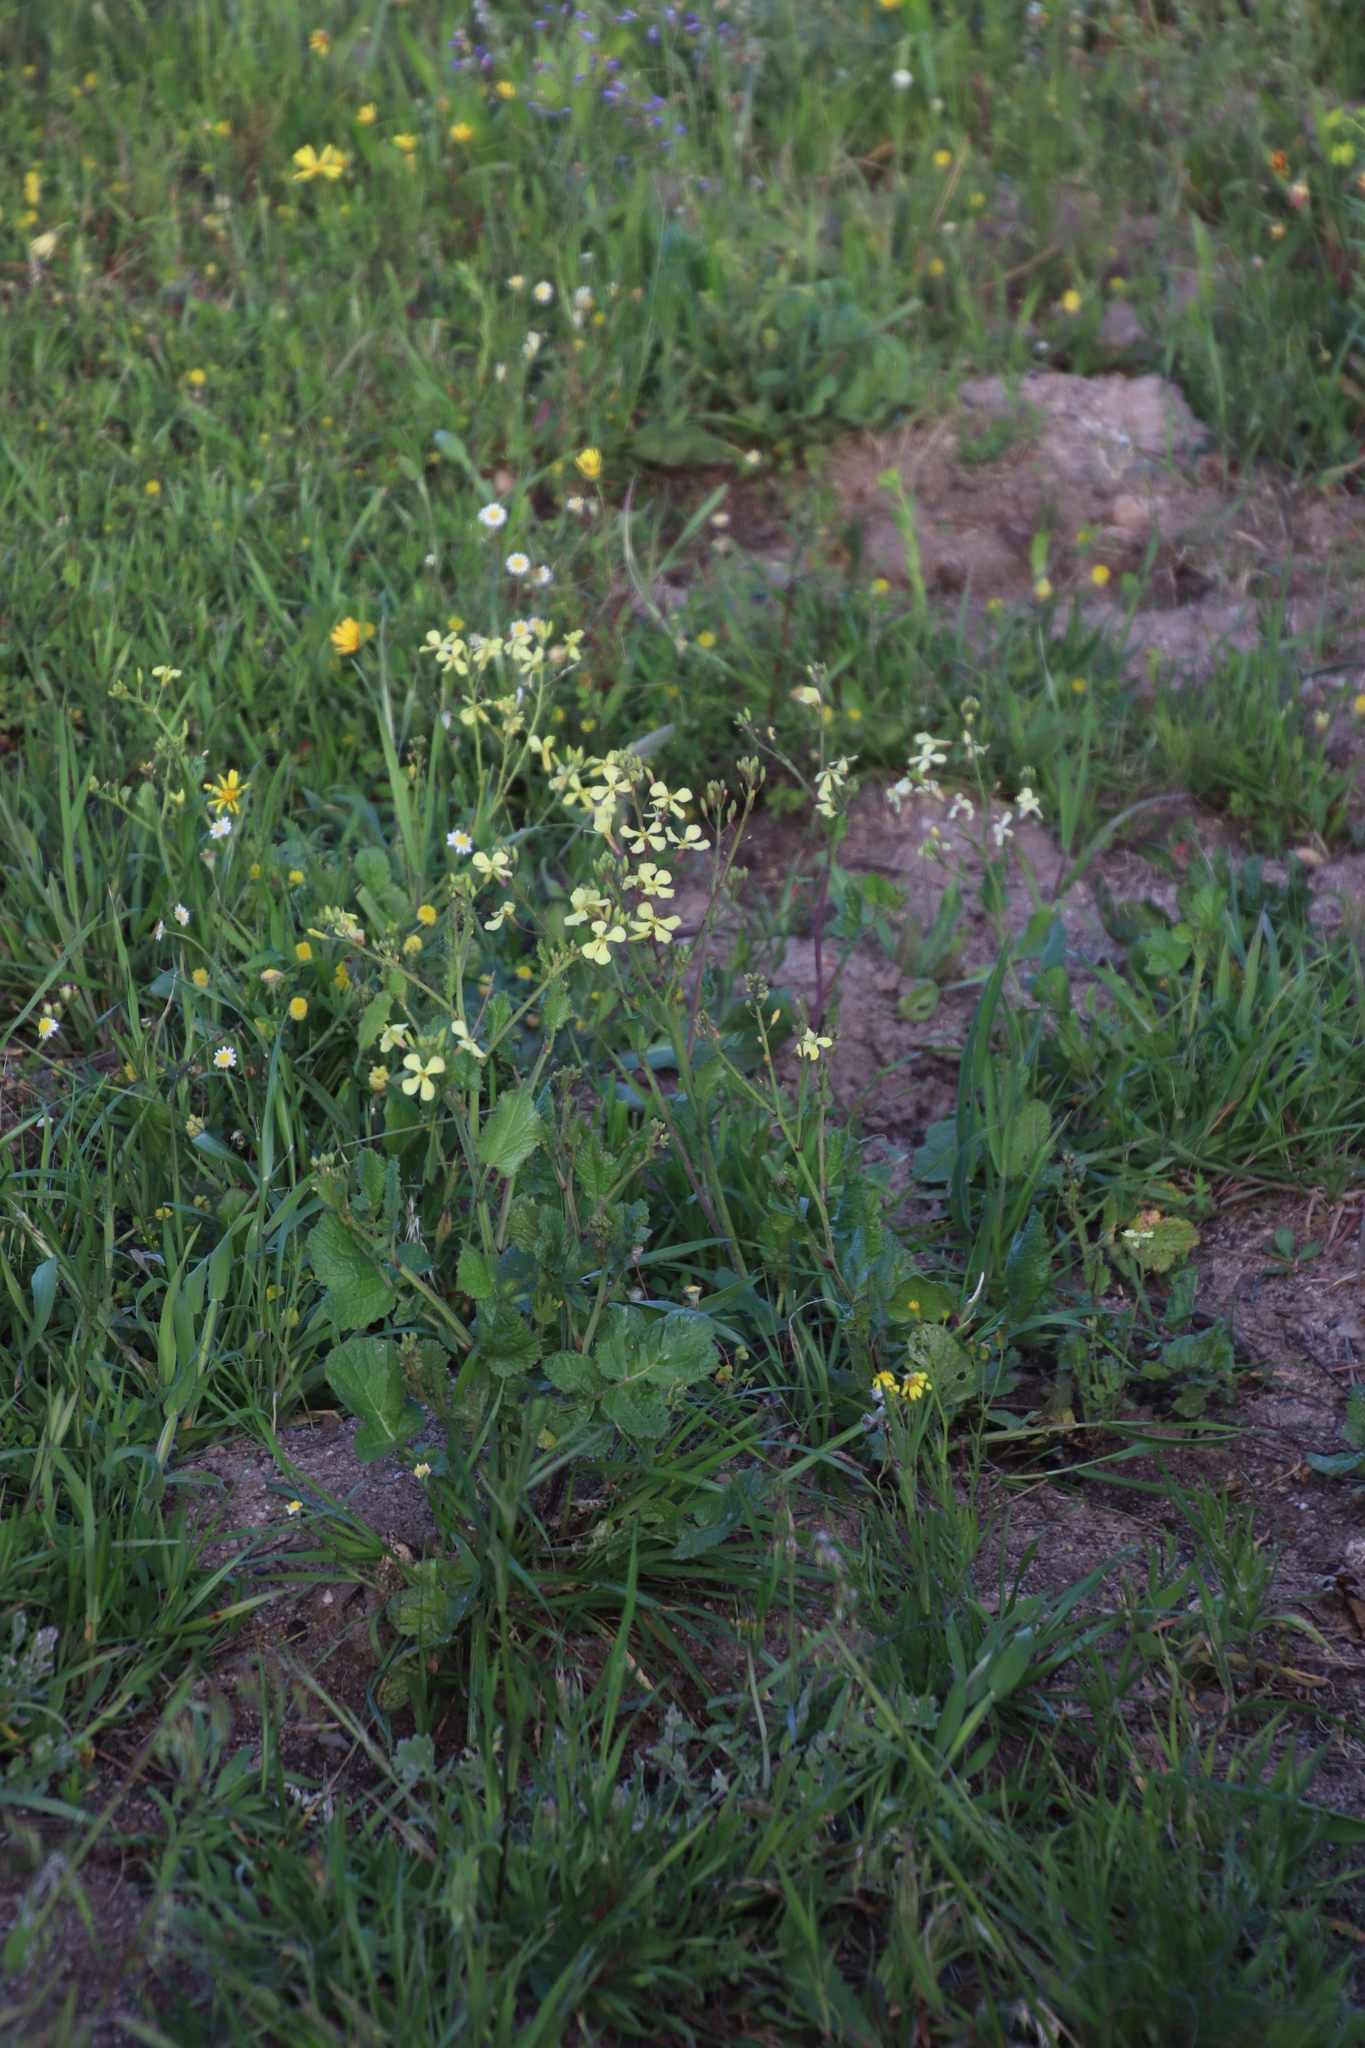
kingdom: Plantae
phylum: Tracheophyta
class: Magnoliopsida
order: Brassicales
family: Brassicaceae
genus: Raphanus
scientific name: Raphanus raphanistrum
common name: Wild radish
